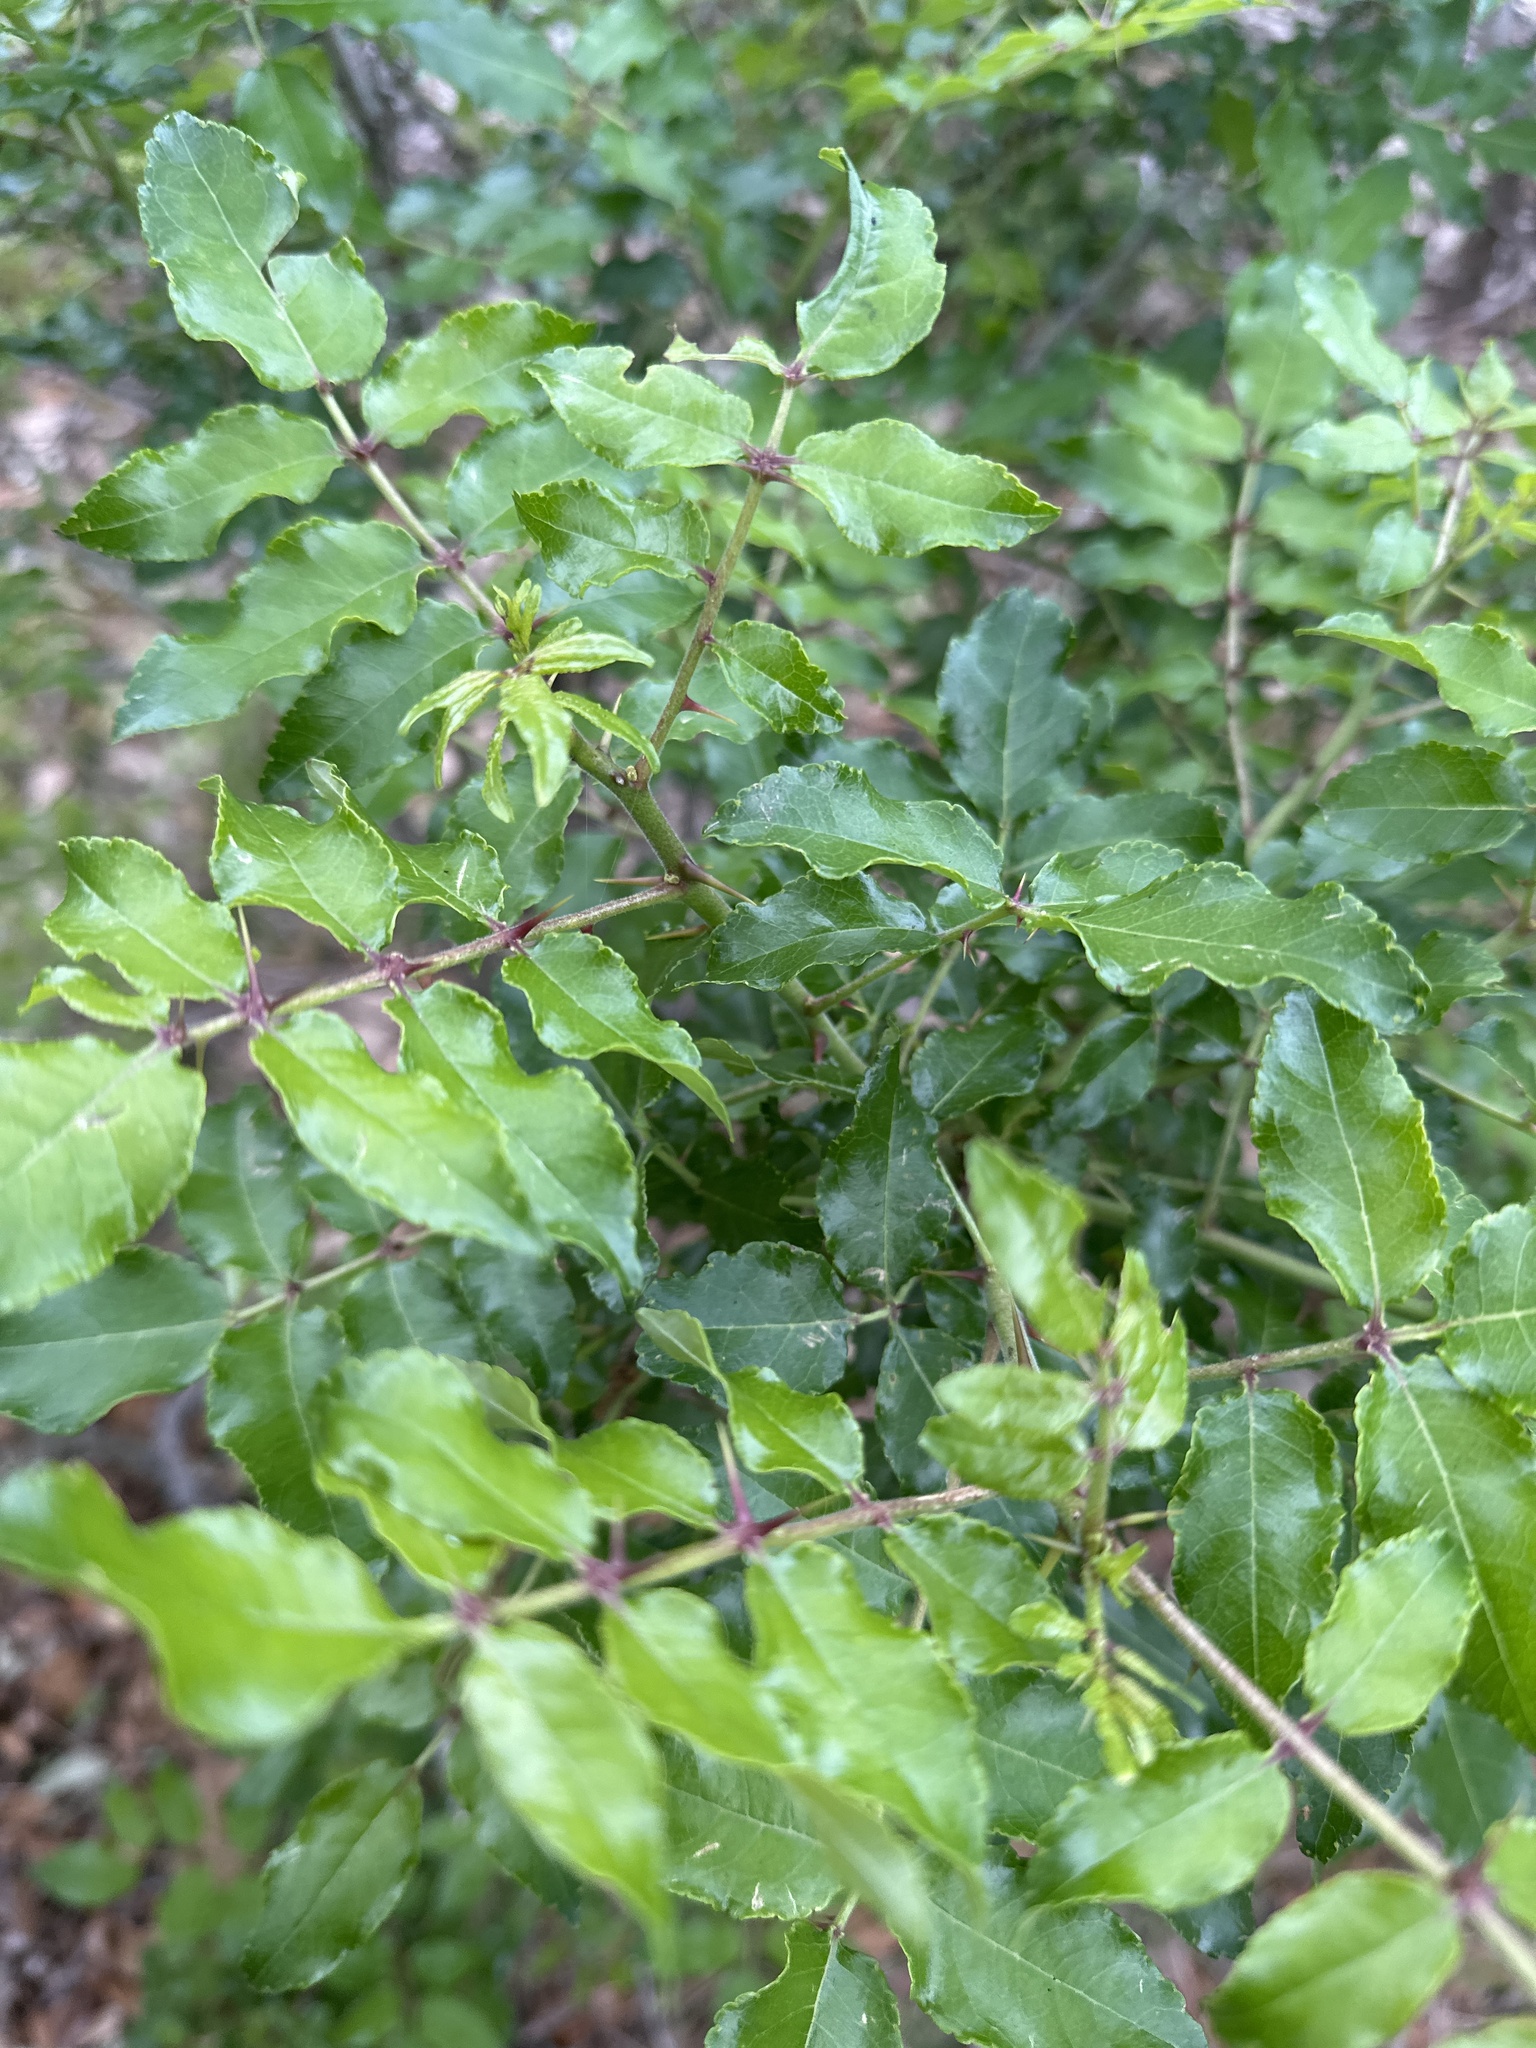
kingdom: Plantae
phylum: Tracheophyta
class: Magnoliopsida
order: Sapindales
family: Rutaceae
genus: Zanthoxylum
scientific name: Zanthoxylum clava-herculis
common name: Hercules'-club
